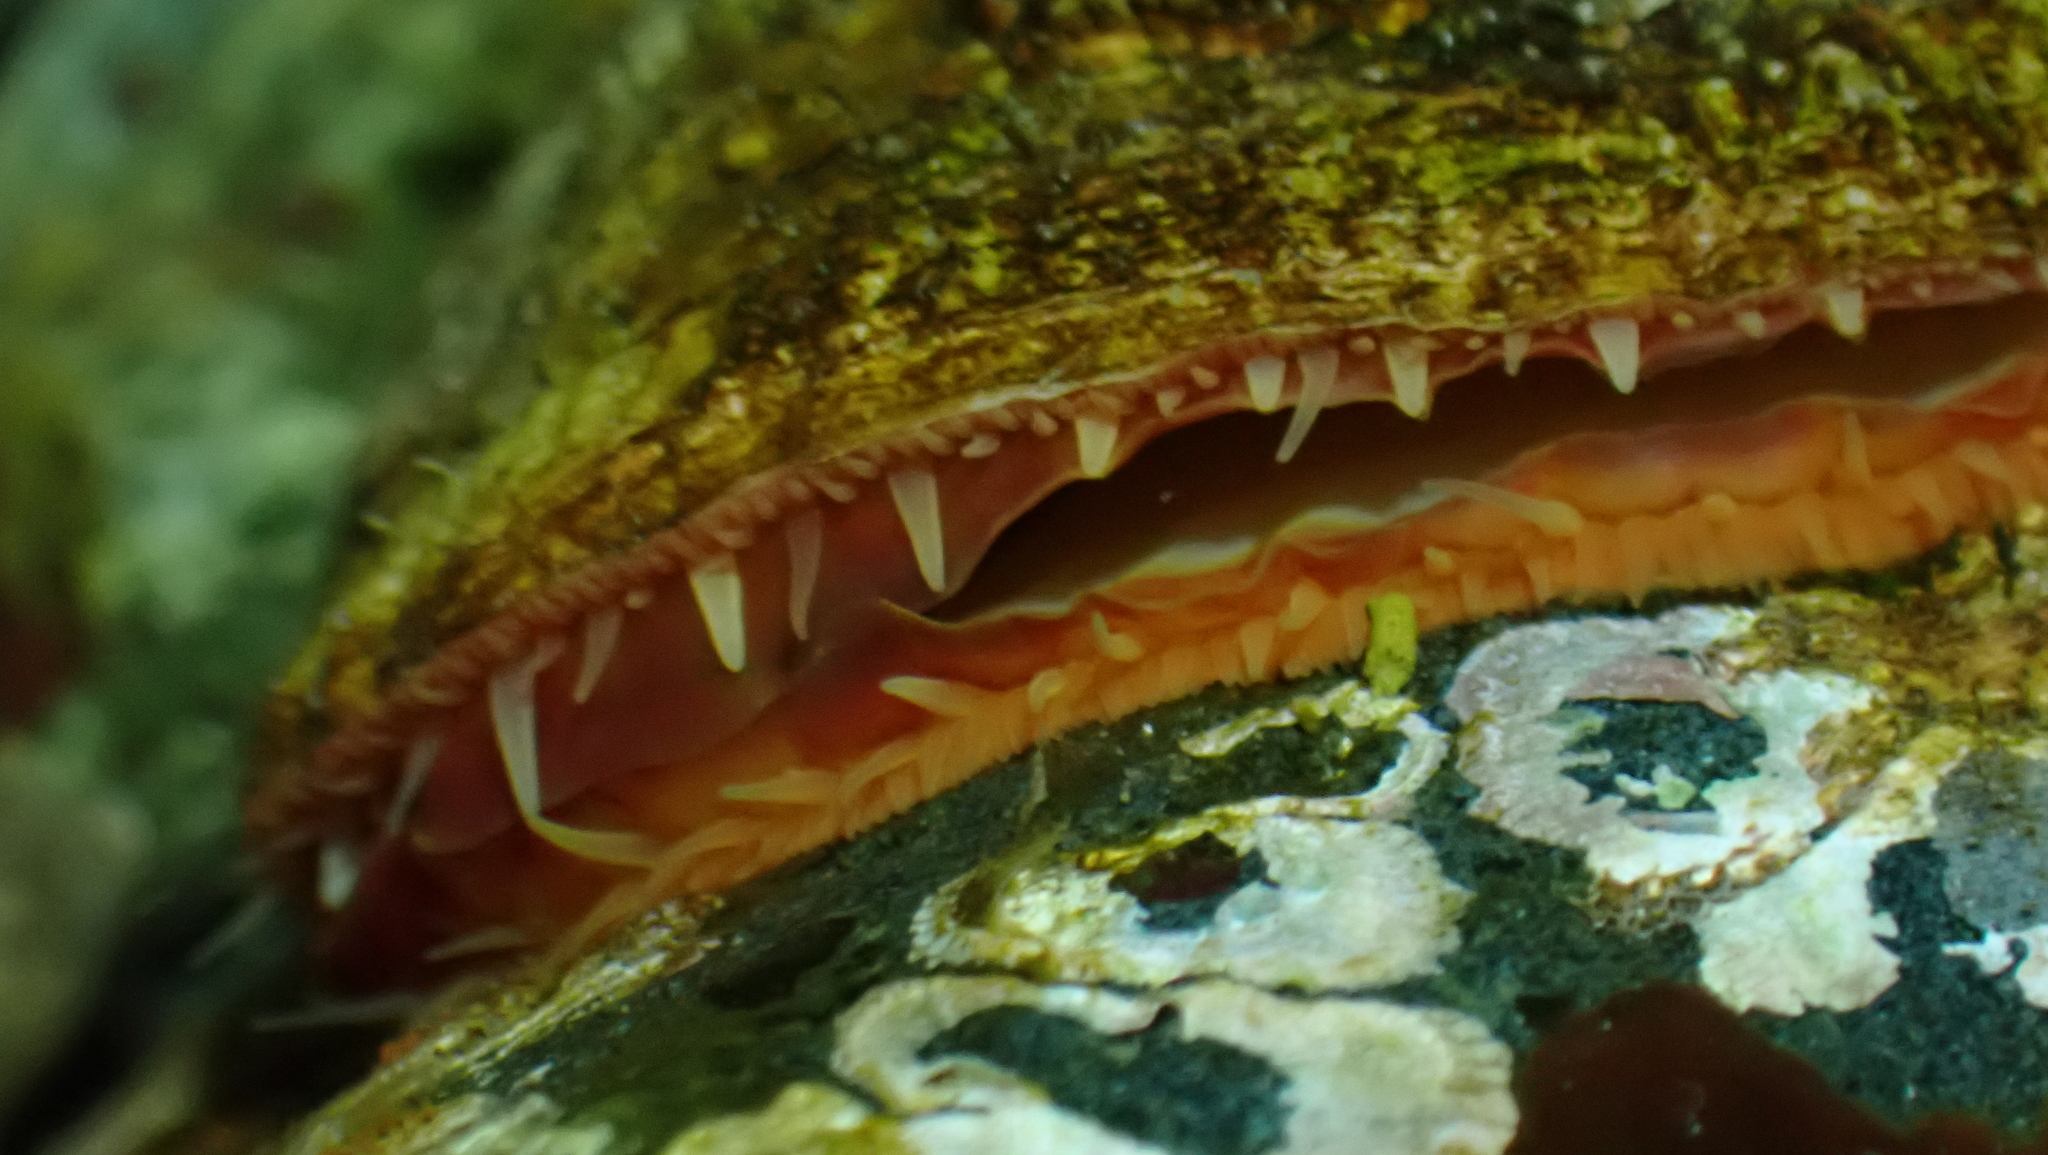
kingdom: Animalia
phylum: Mollusca
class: Bivalvia
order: Pectinida
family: Anomiidae
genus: Pododesmus
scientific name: Pododesmus macrochisma
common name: Alaska jingle
